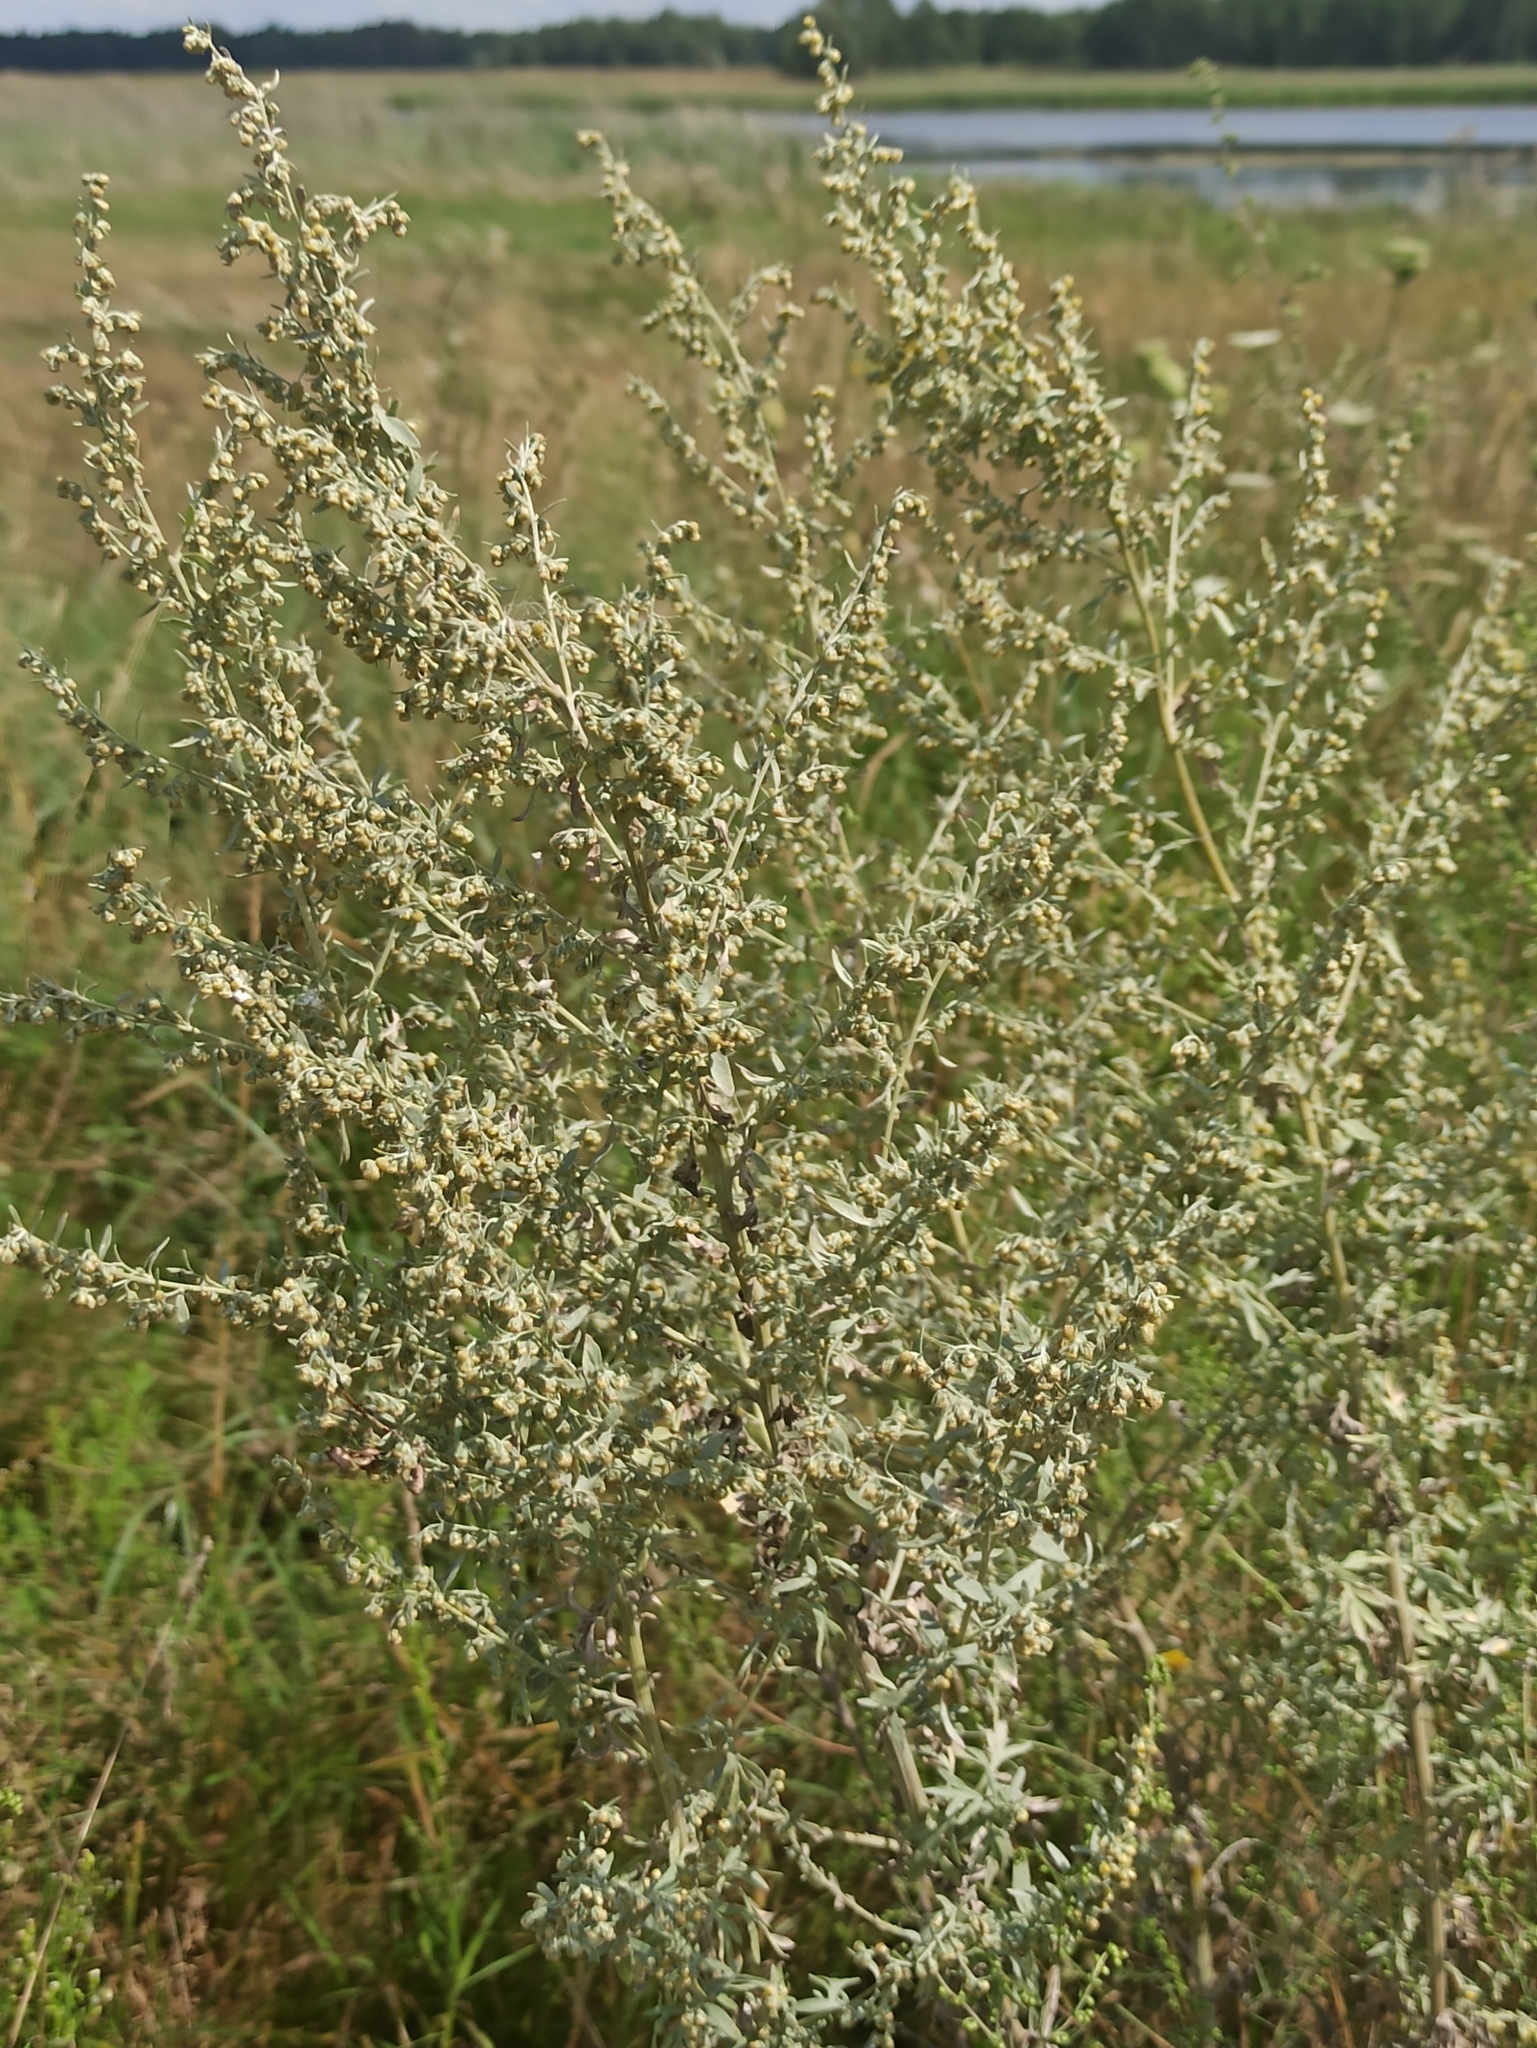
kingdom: Plantae
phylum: Tracheophyta
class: Magnoliopsida
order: Asterales
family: Asteraceae
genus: Artemisia
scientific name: Artemisia absinthium
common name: Wormwood
